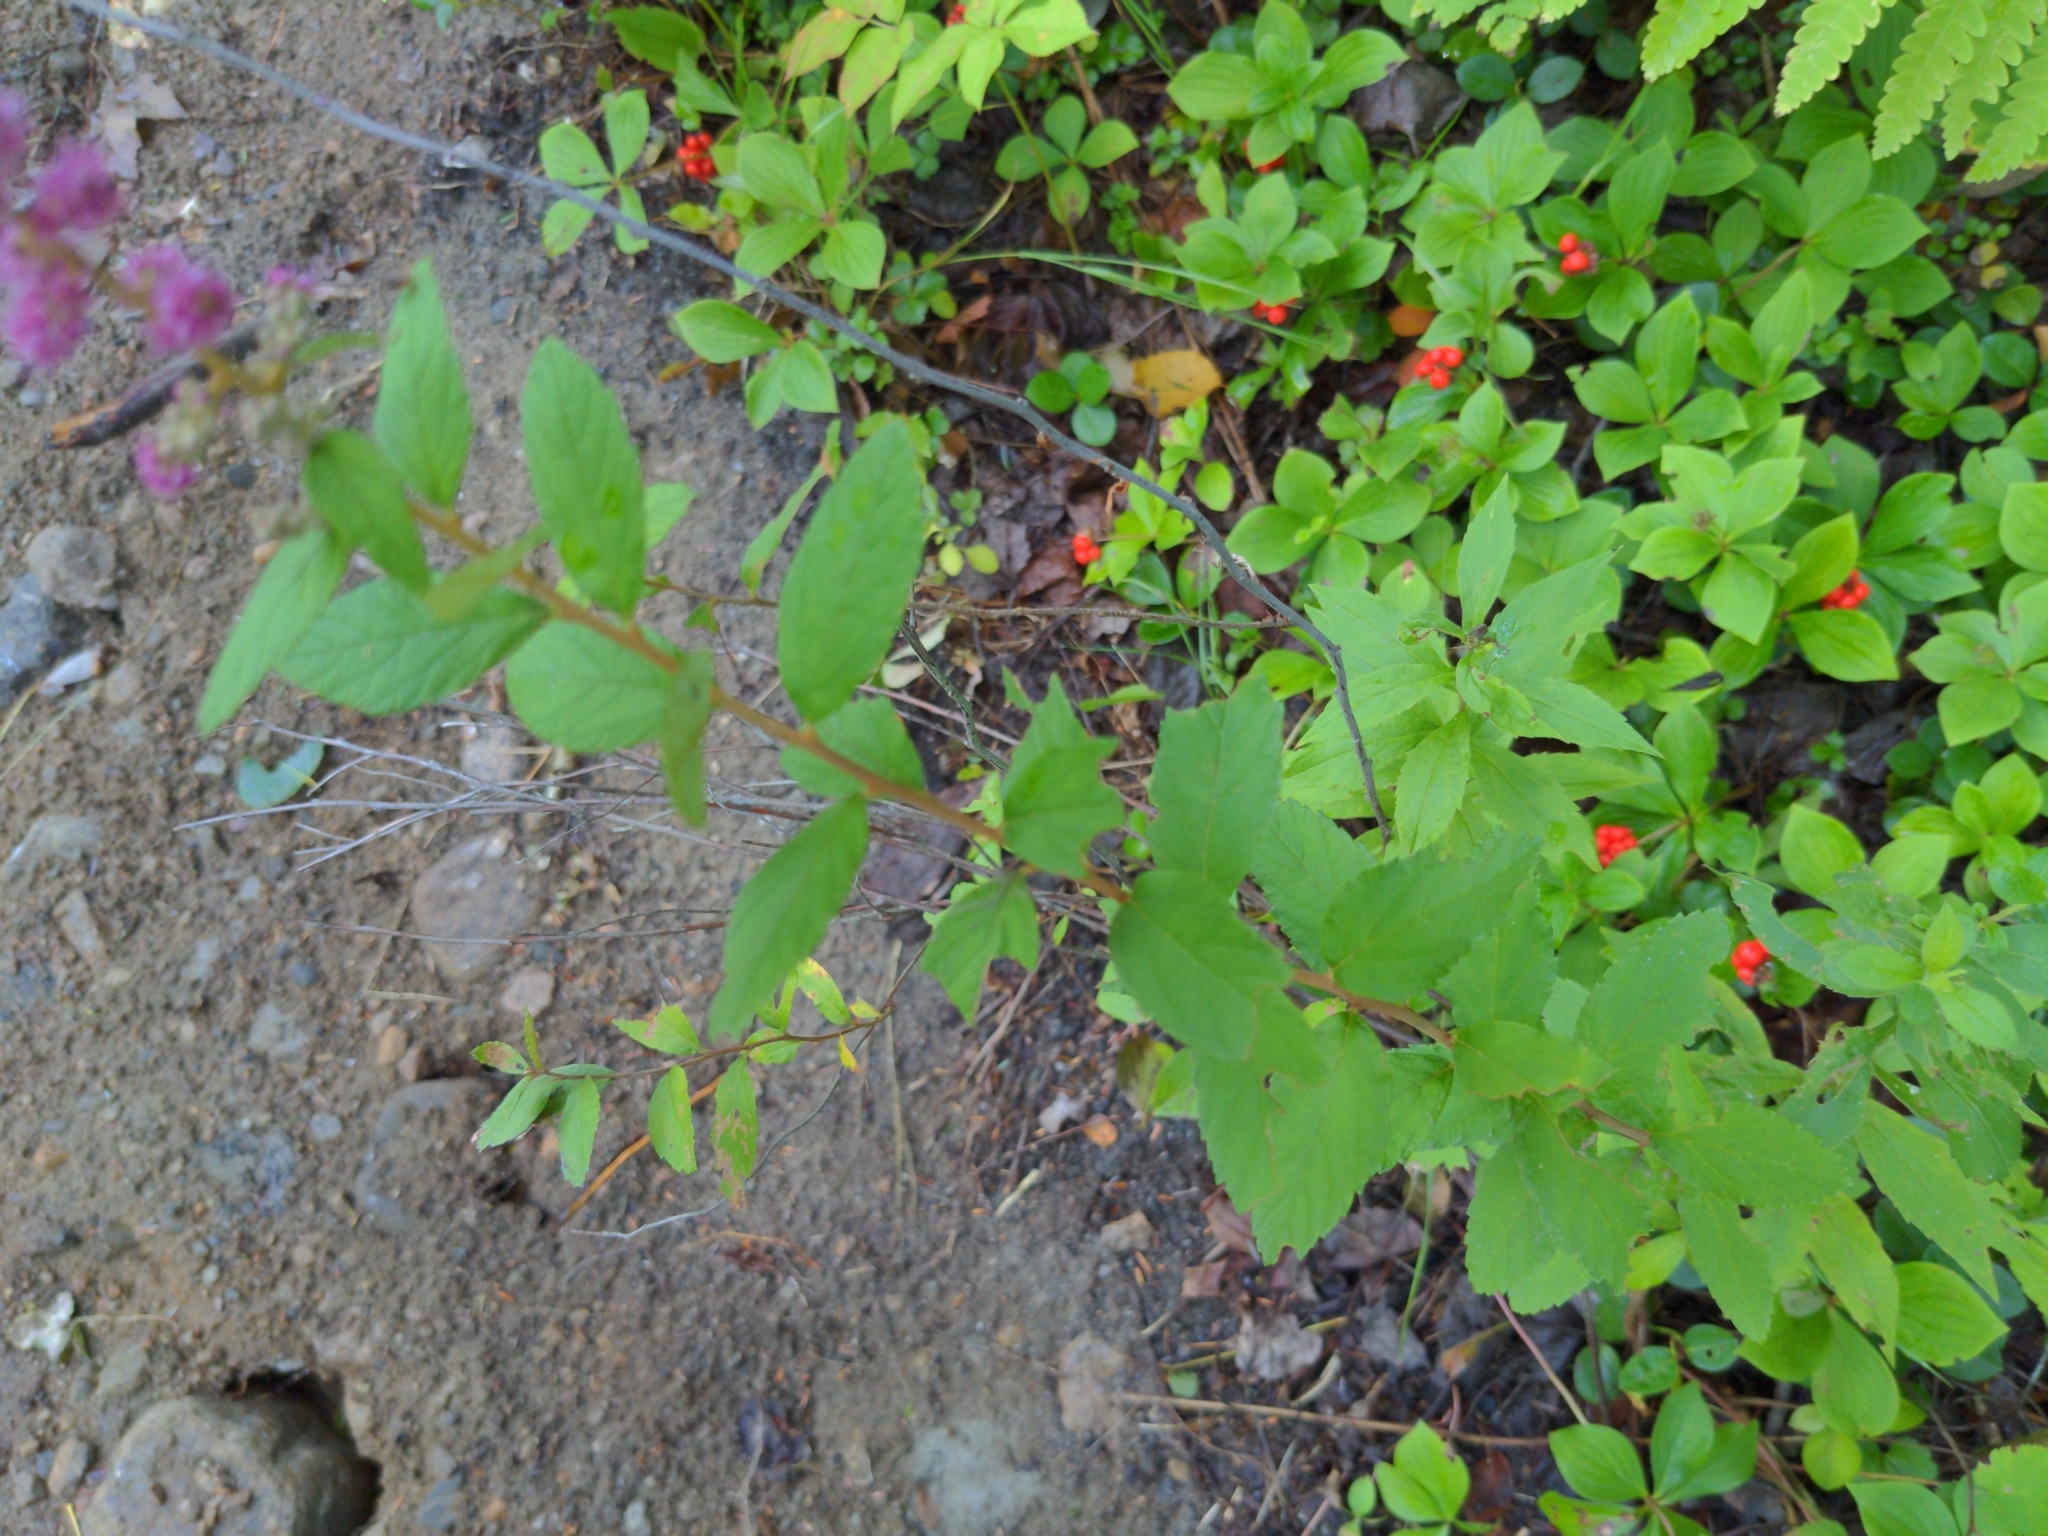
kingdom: Plantae
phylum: Tracheophyta
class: Magnoliopsida
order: Rosales
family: Rosaceae
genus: Spiraea
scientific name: Spiraea tomentosa
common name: Hardhack
